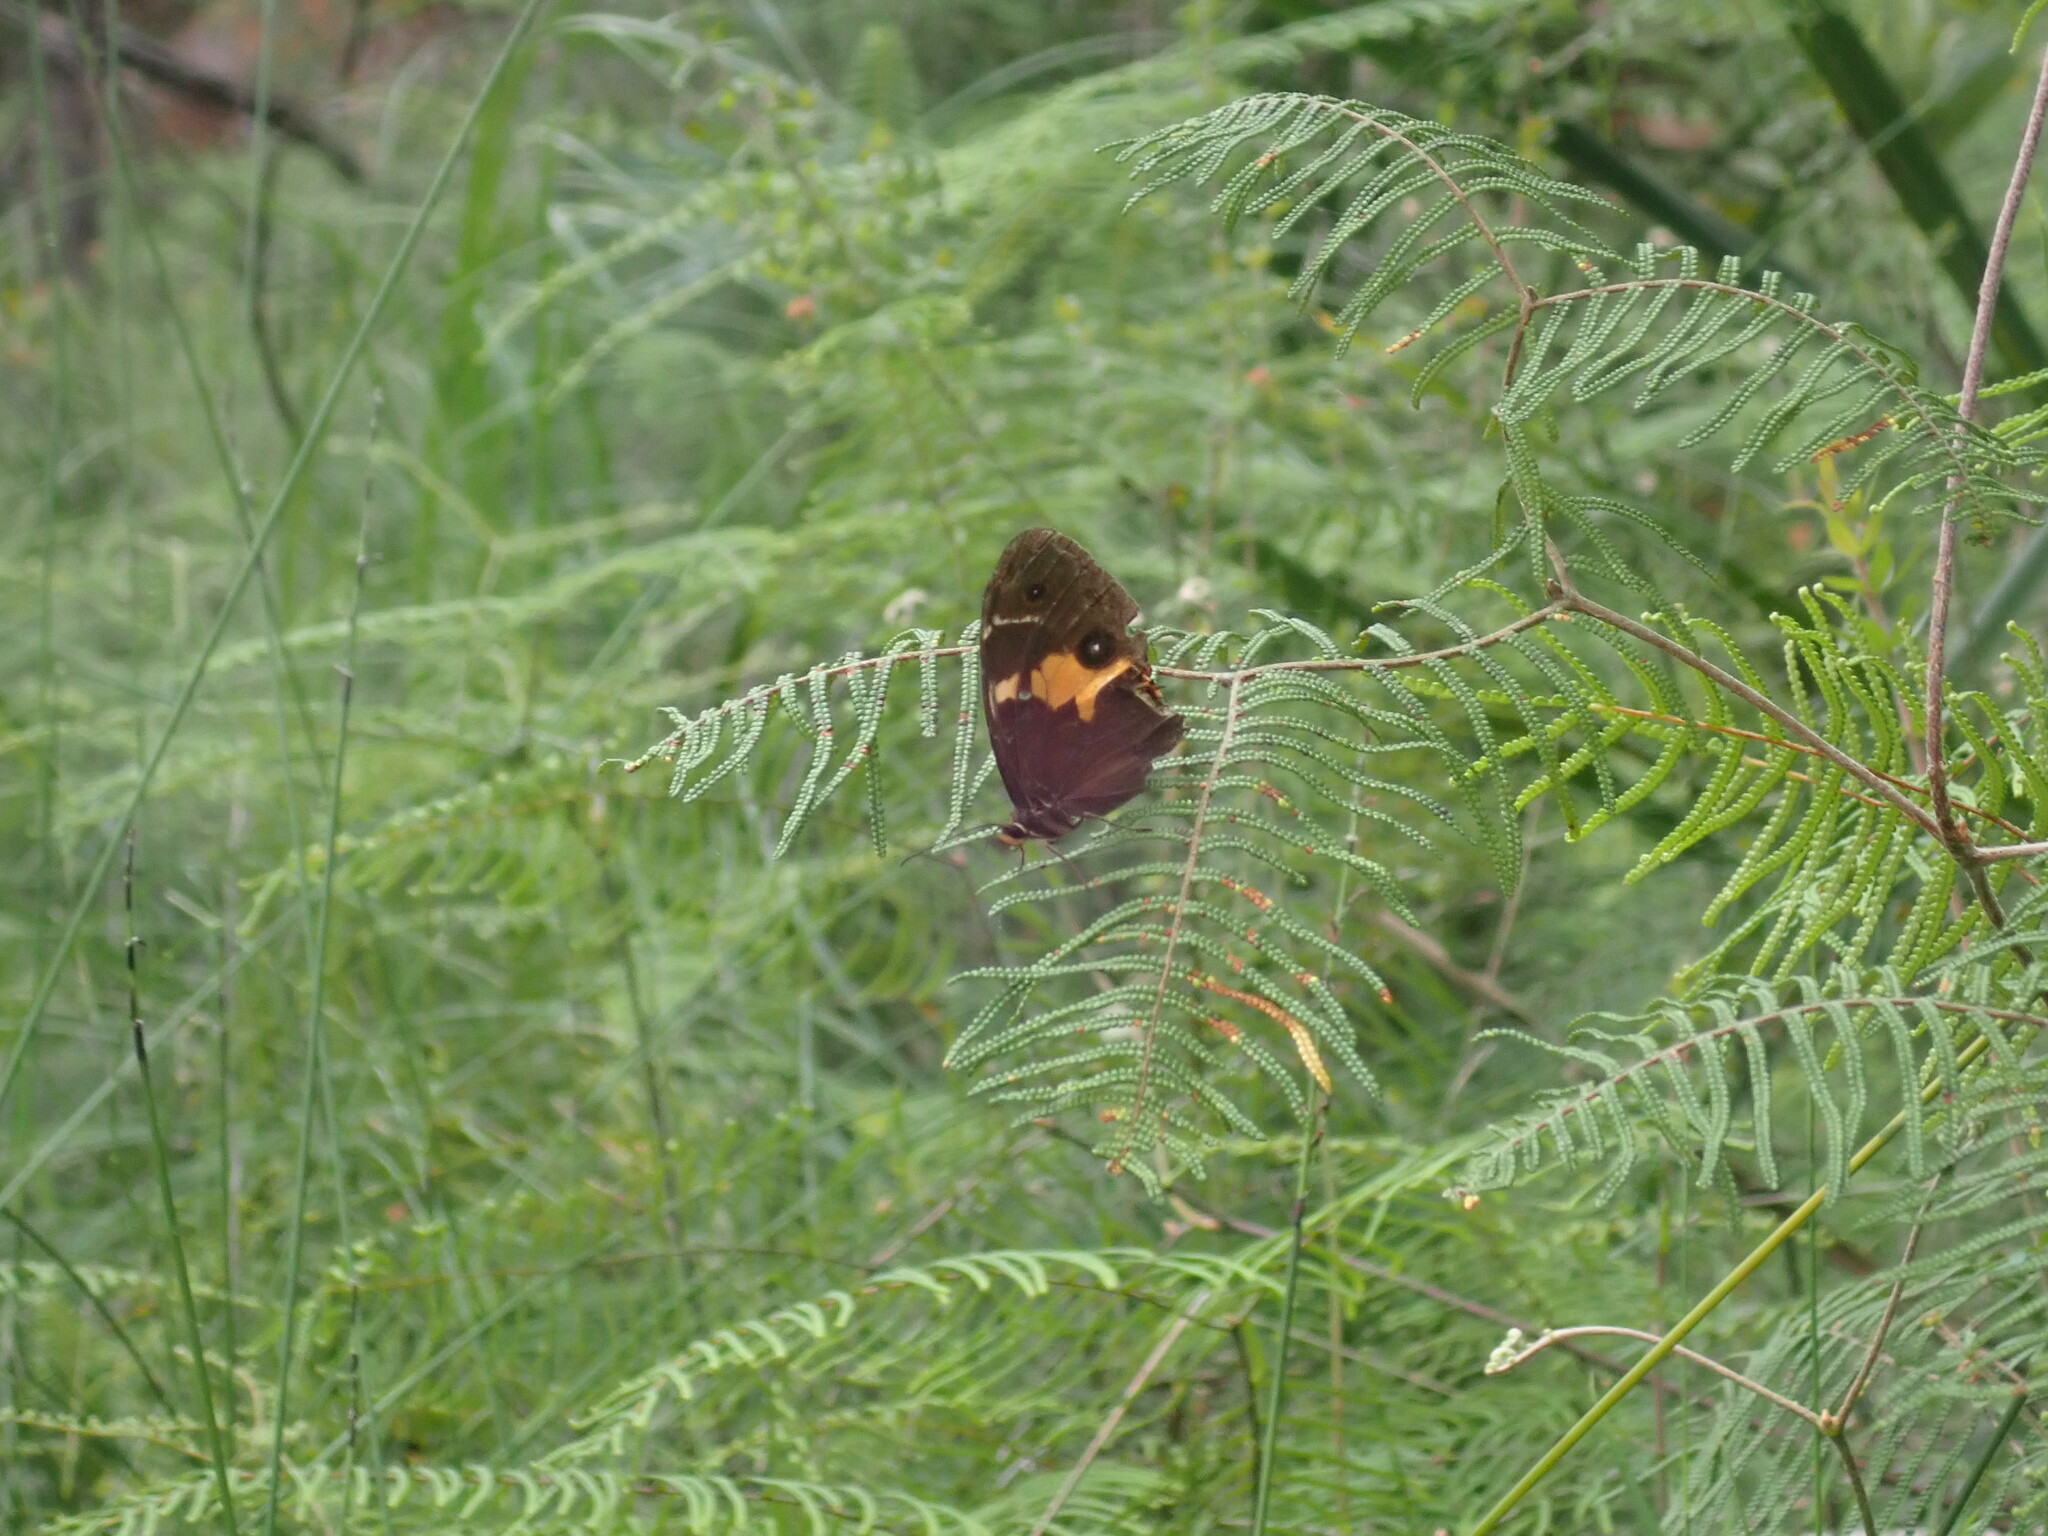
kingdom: Animalia
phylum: Arthropoda
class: Insecta
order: Lepidoptera
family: Nymphalidae
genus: Tisiphone
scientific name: Tisiphone abeona
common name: Swordgrass brown
